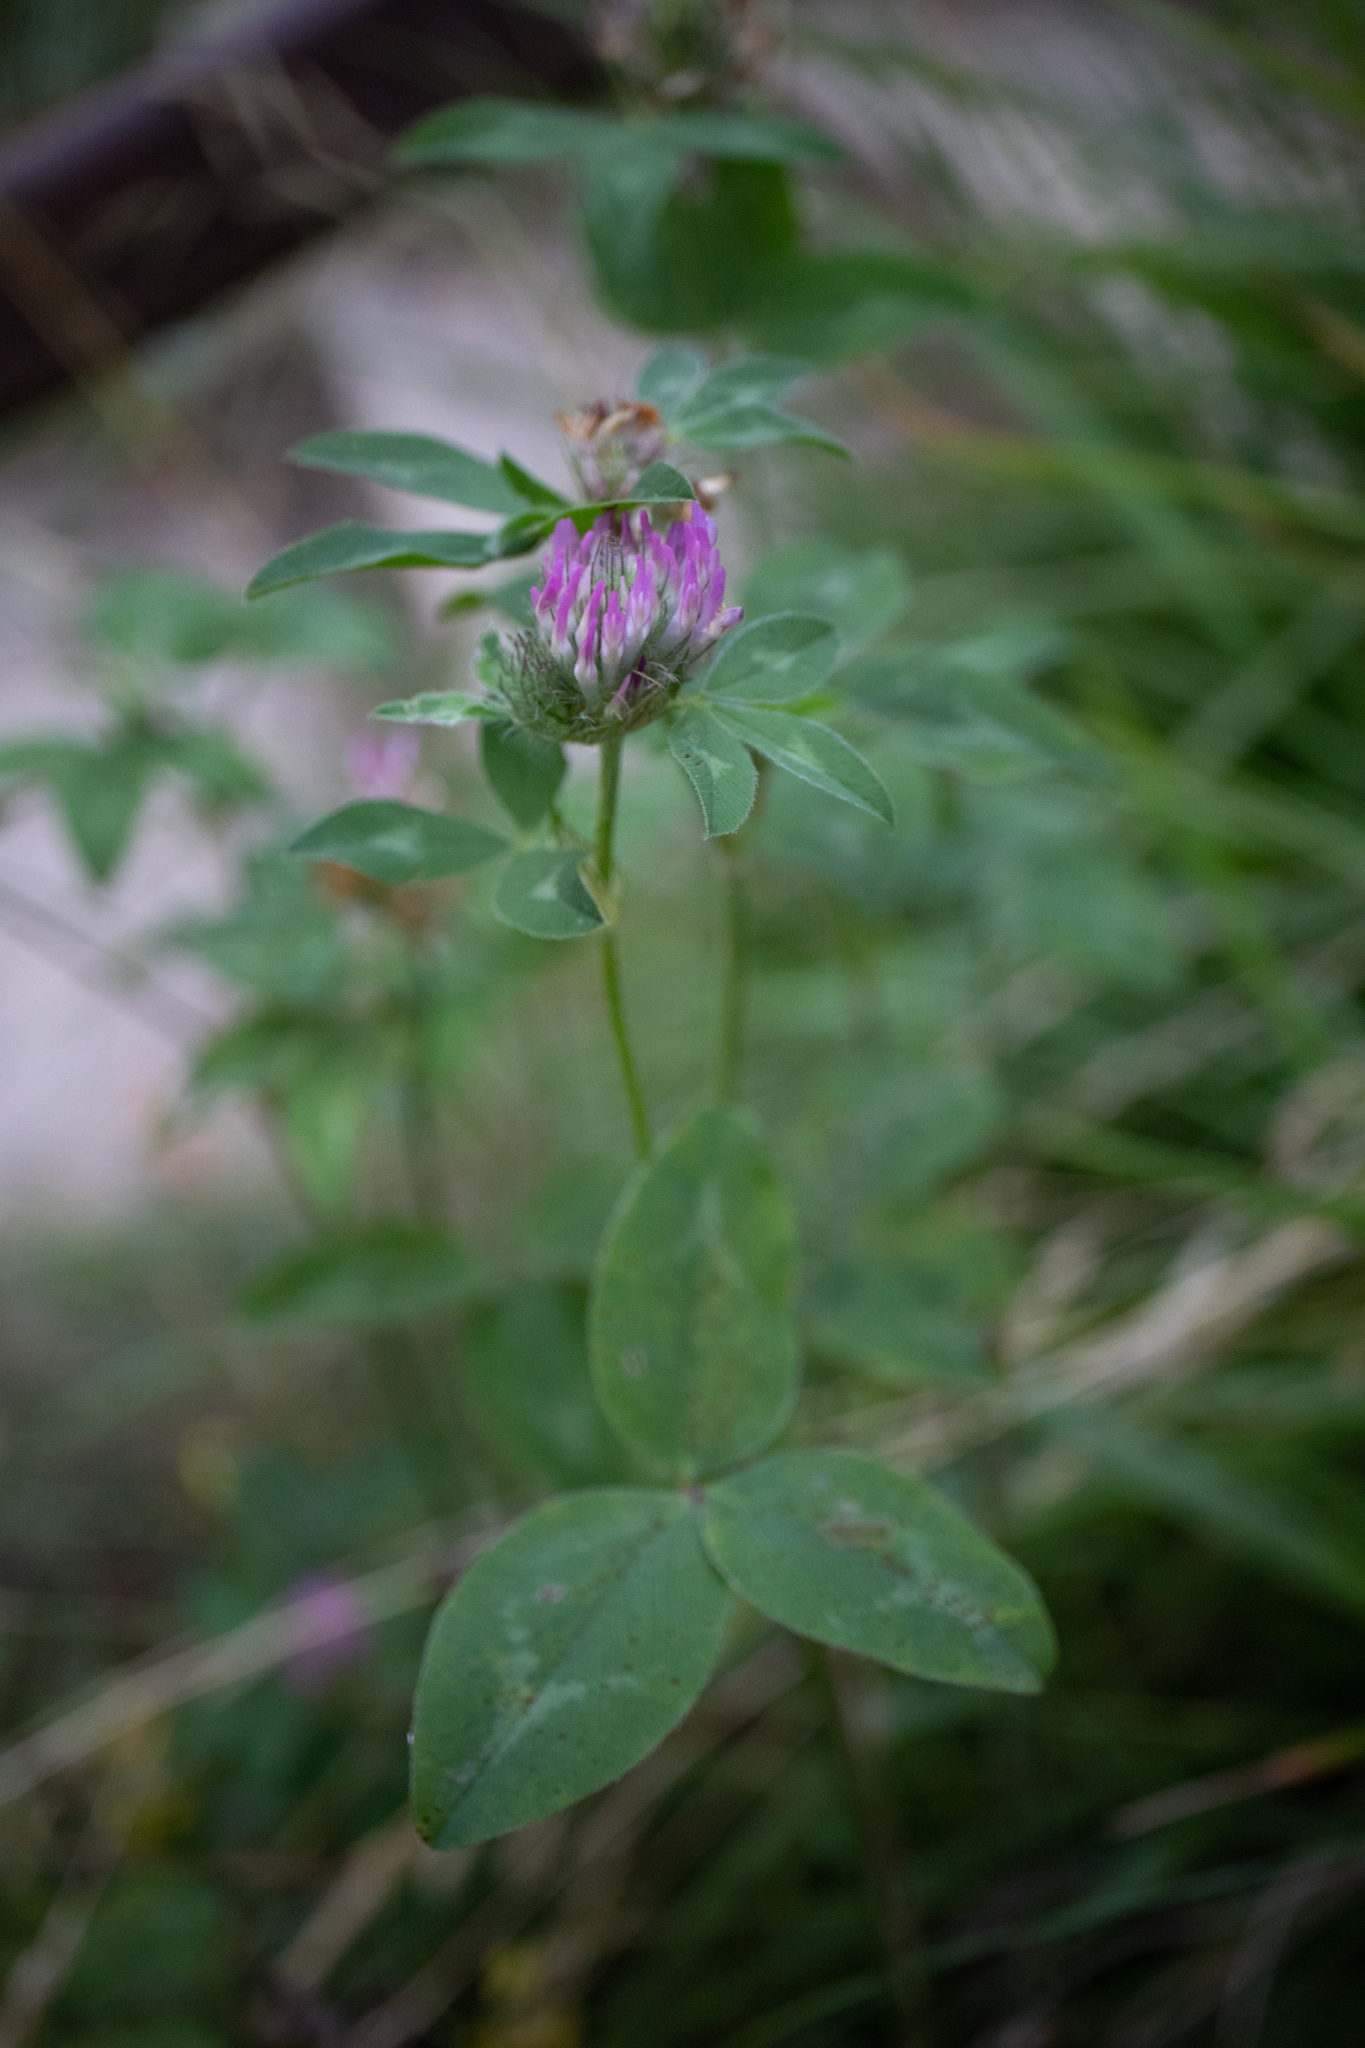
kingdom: Plantae
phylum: Tracheophyta
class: Magnoliopsida
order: Fabales
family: Fabaceae
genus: Trifolium
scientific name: Trifolium pratense
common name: Red clover
